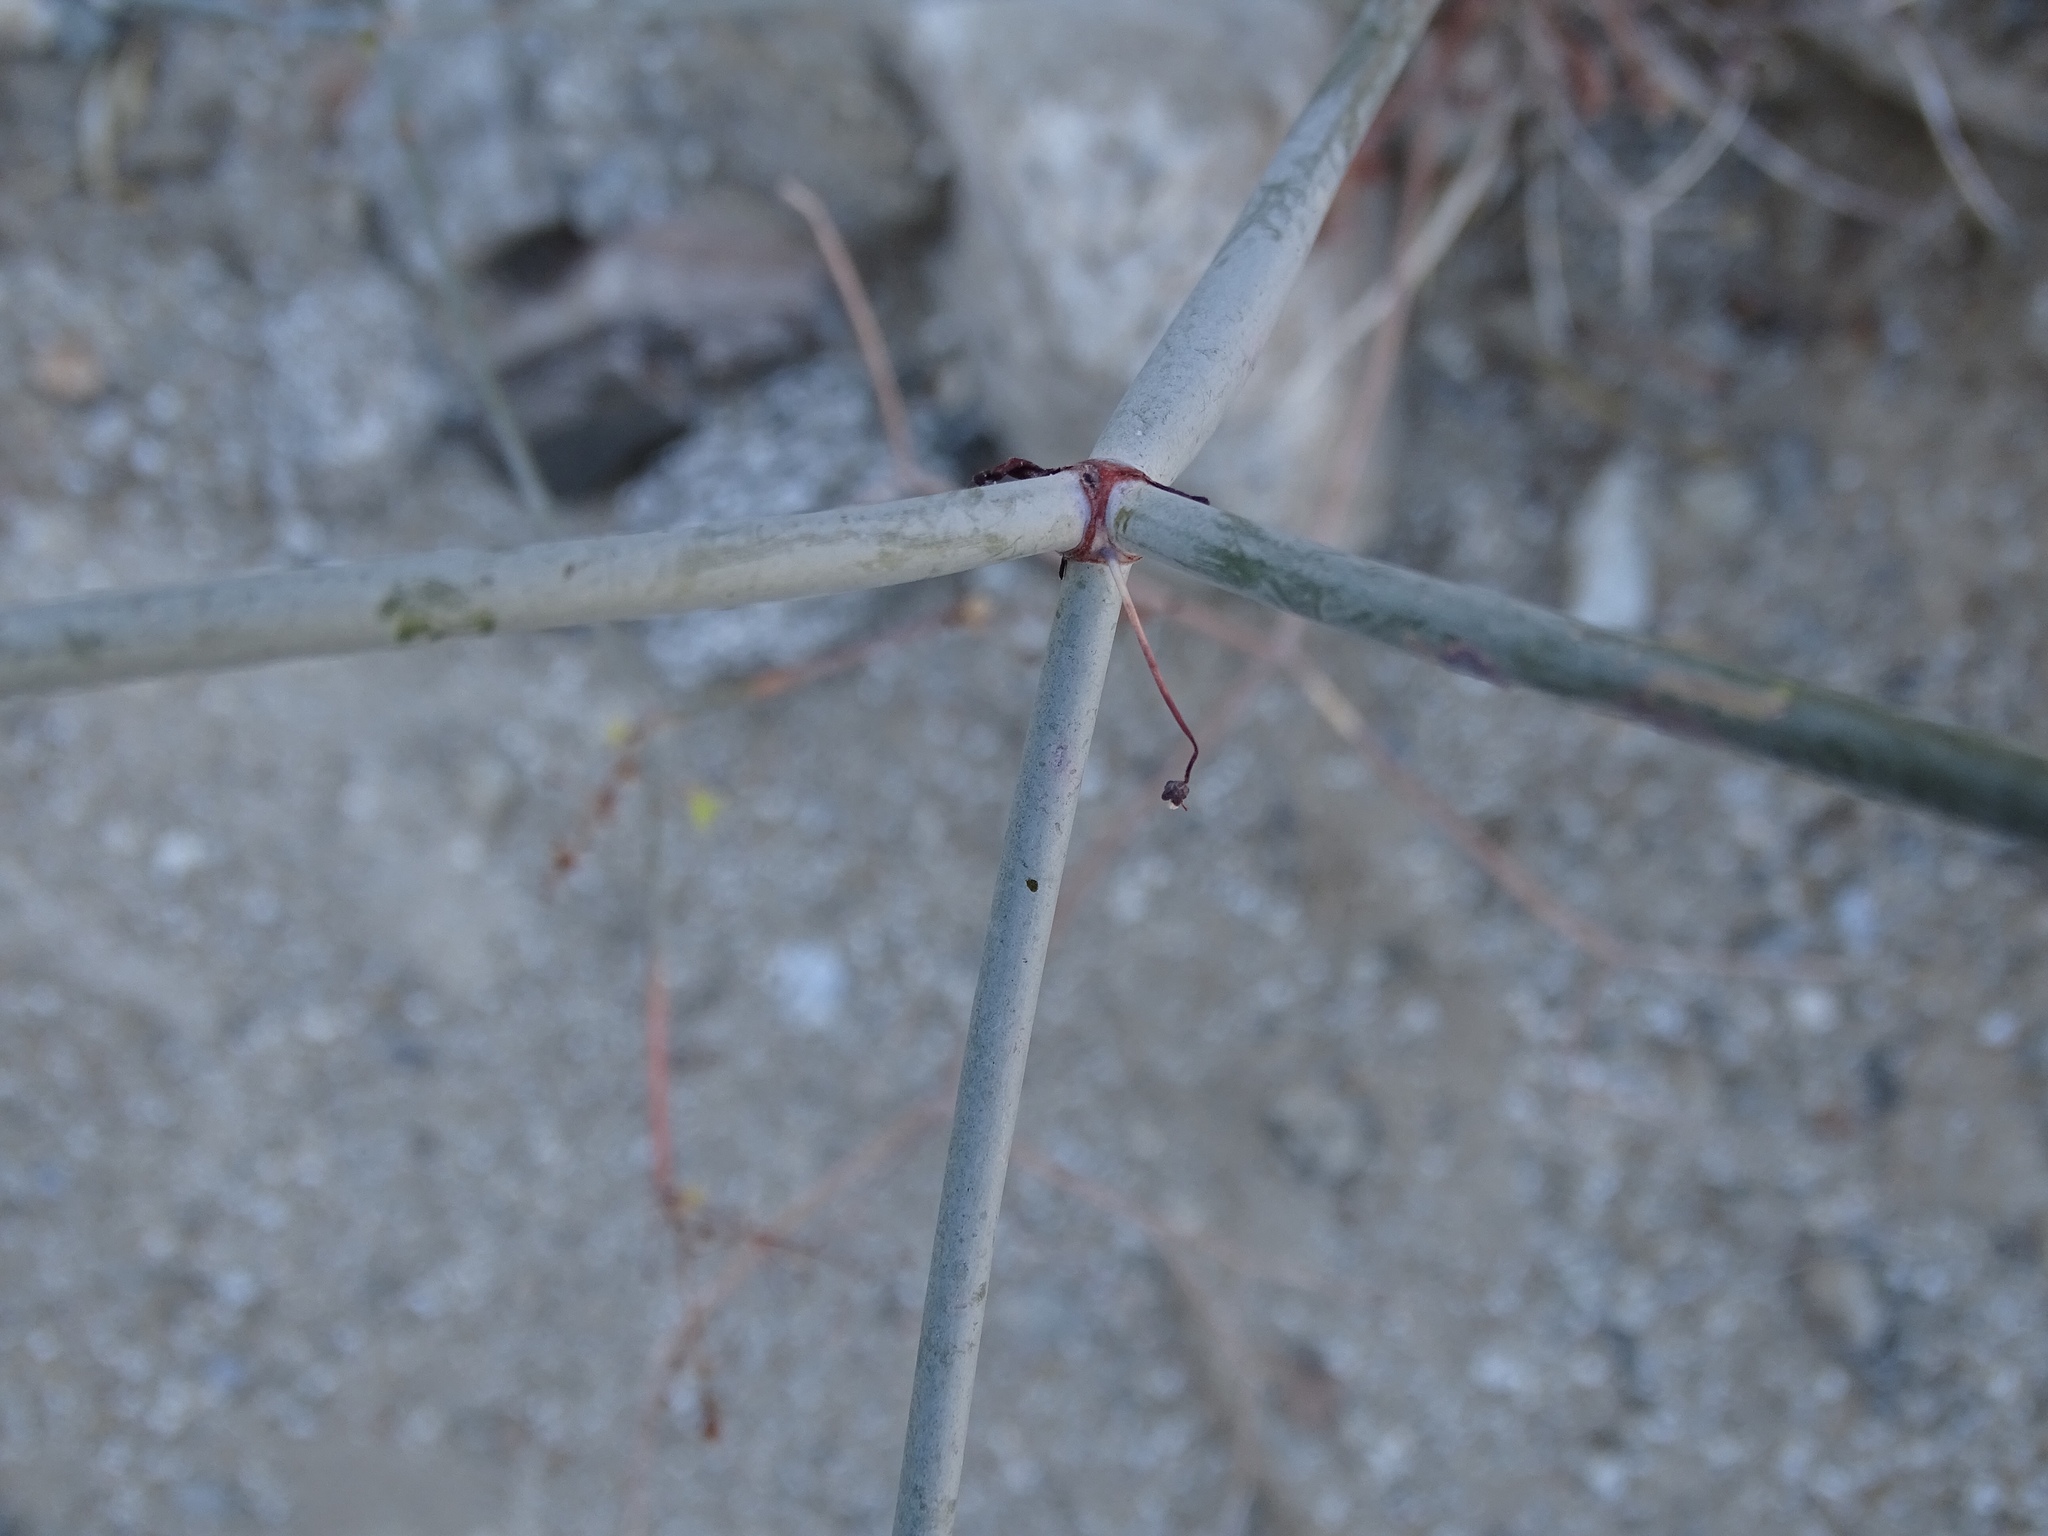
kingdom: Plantae
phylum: Tracheophyta
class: Magnoliopsida
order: Caryophyllales
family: Polygonaceae
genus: Eriogonum
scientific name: Eriogonum inflatum
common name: Desert trumpet
